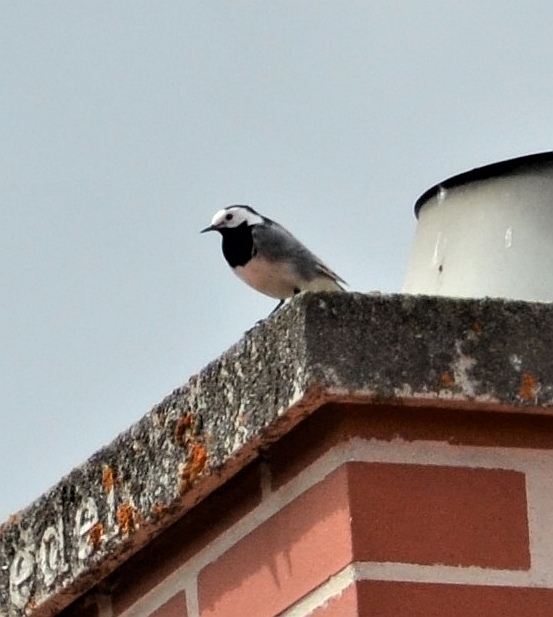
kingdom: Animalia
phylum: Chordata
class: Aves
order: Passeriformes
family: Motacillidae
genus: Motacilla
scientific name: Motacilla alba
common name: White wagtail
